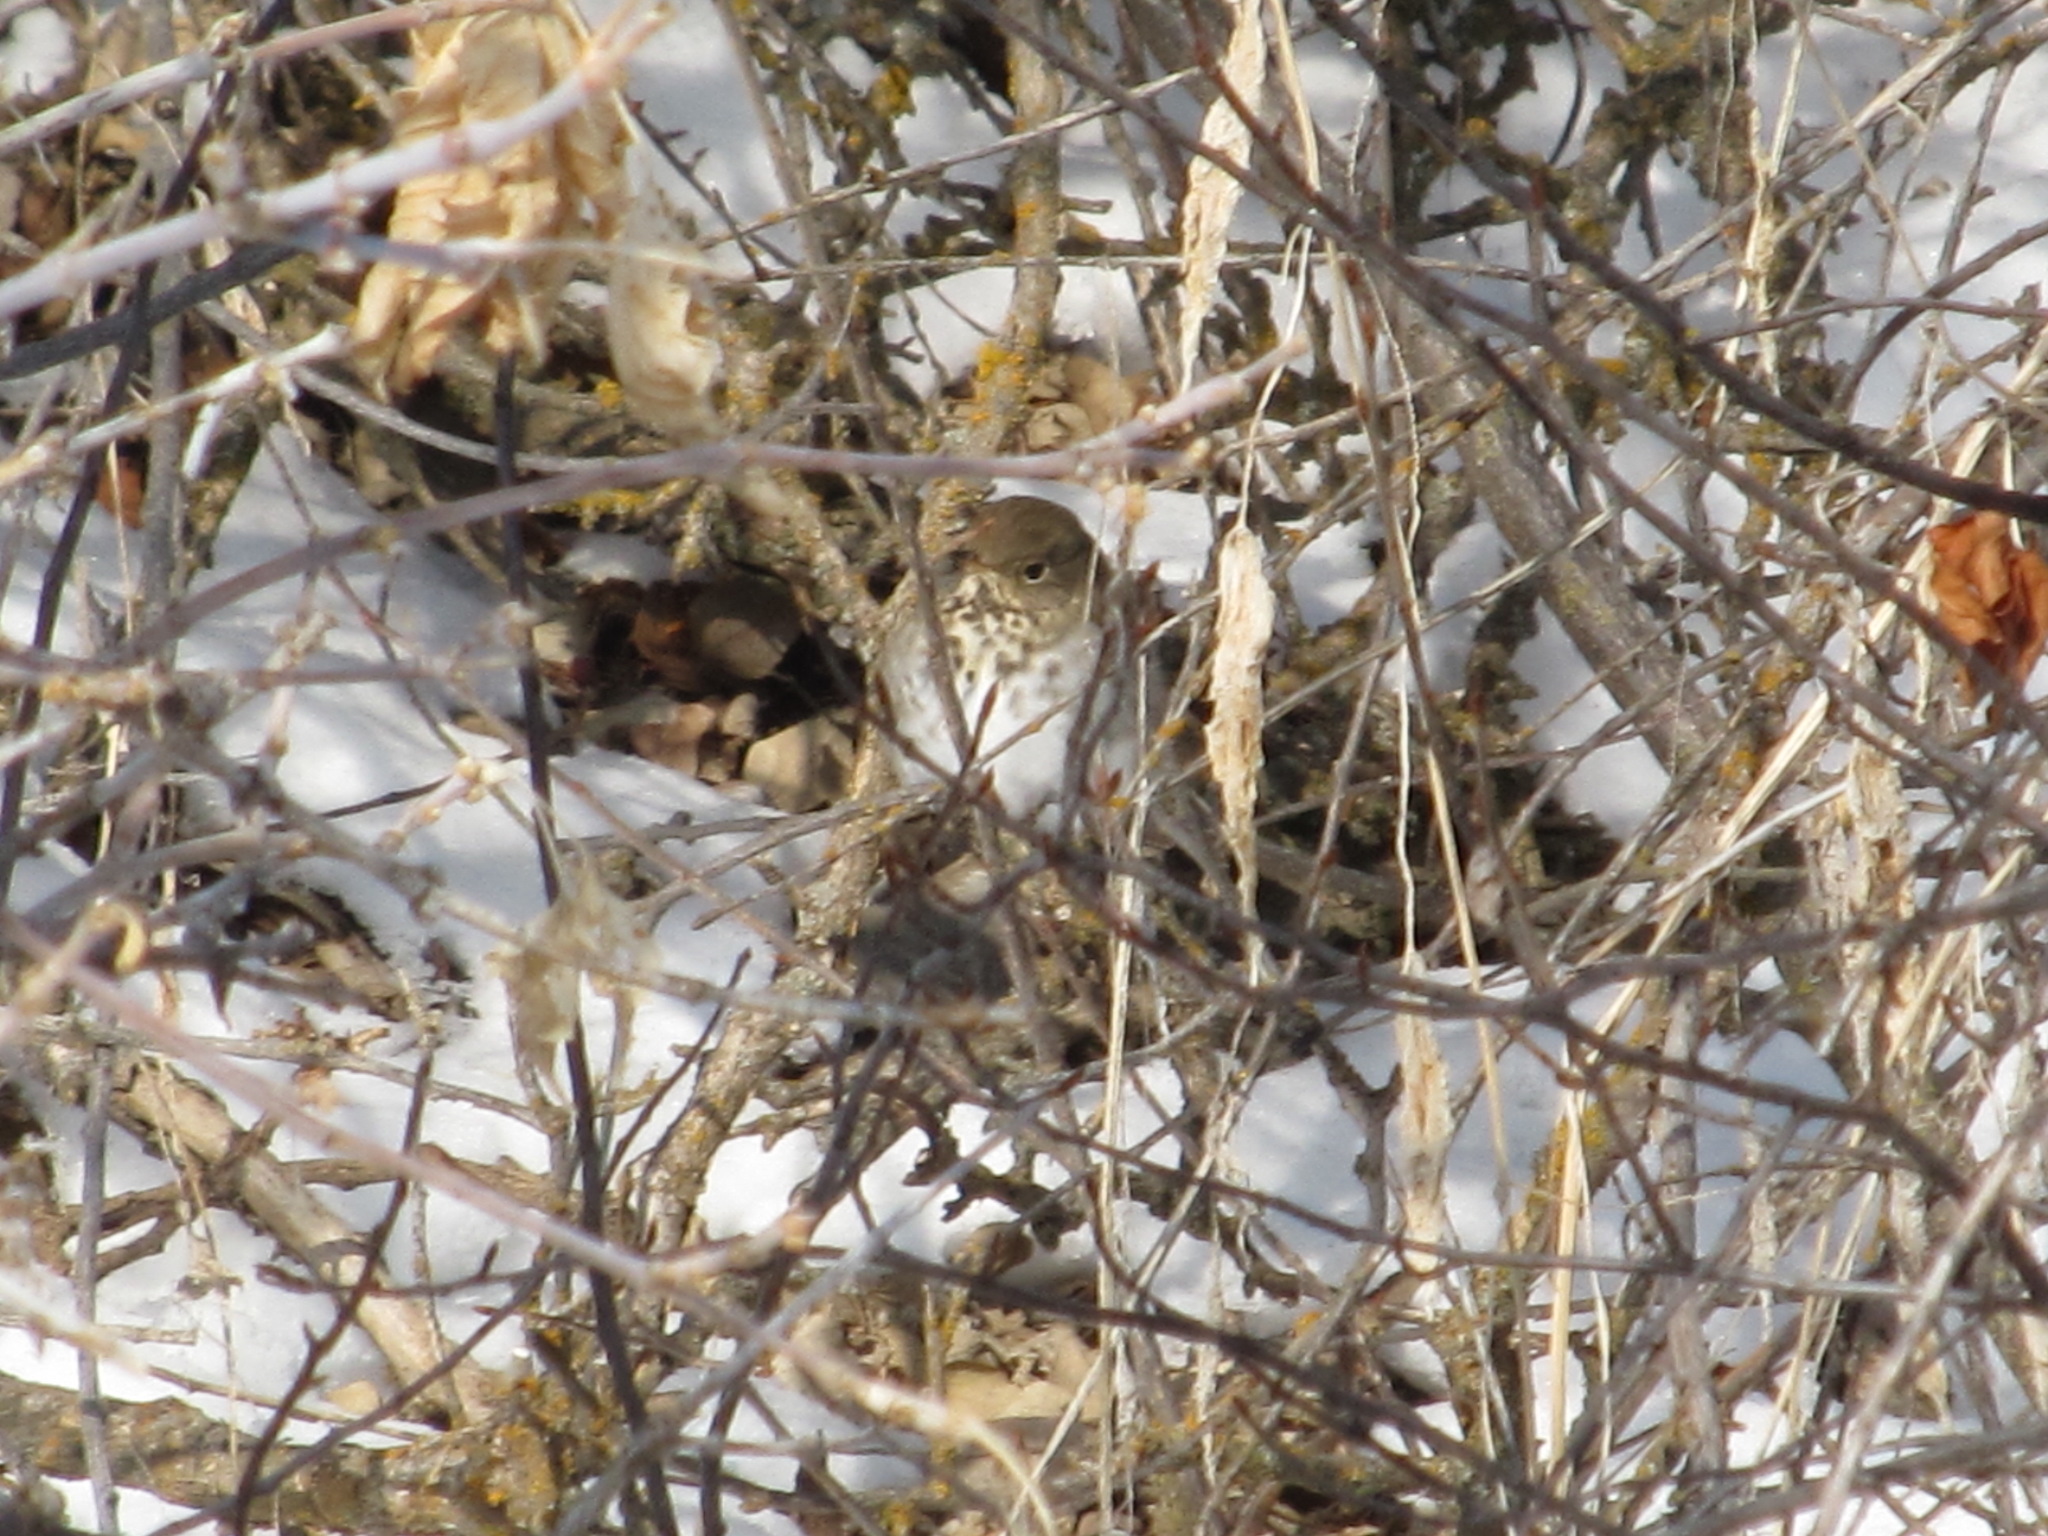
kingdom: Animalia
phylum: Chordata
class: Aves
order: Passeriformes
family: Turdidae
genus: Catharus
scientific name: Catharus guttatus
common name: Hermit thrush
